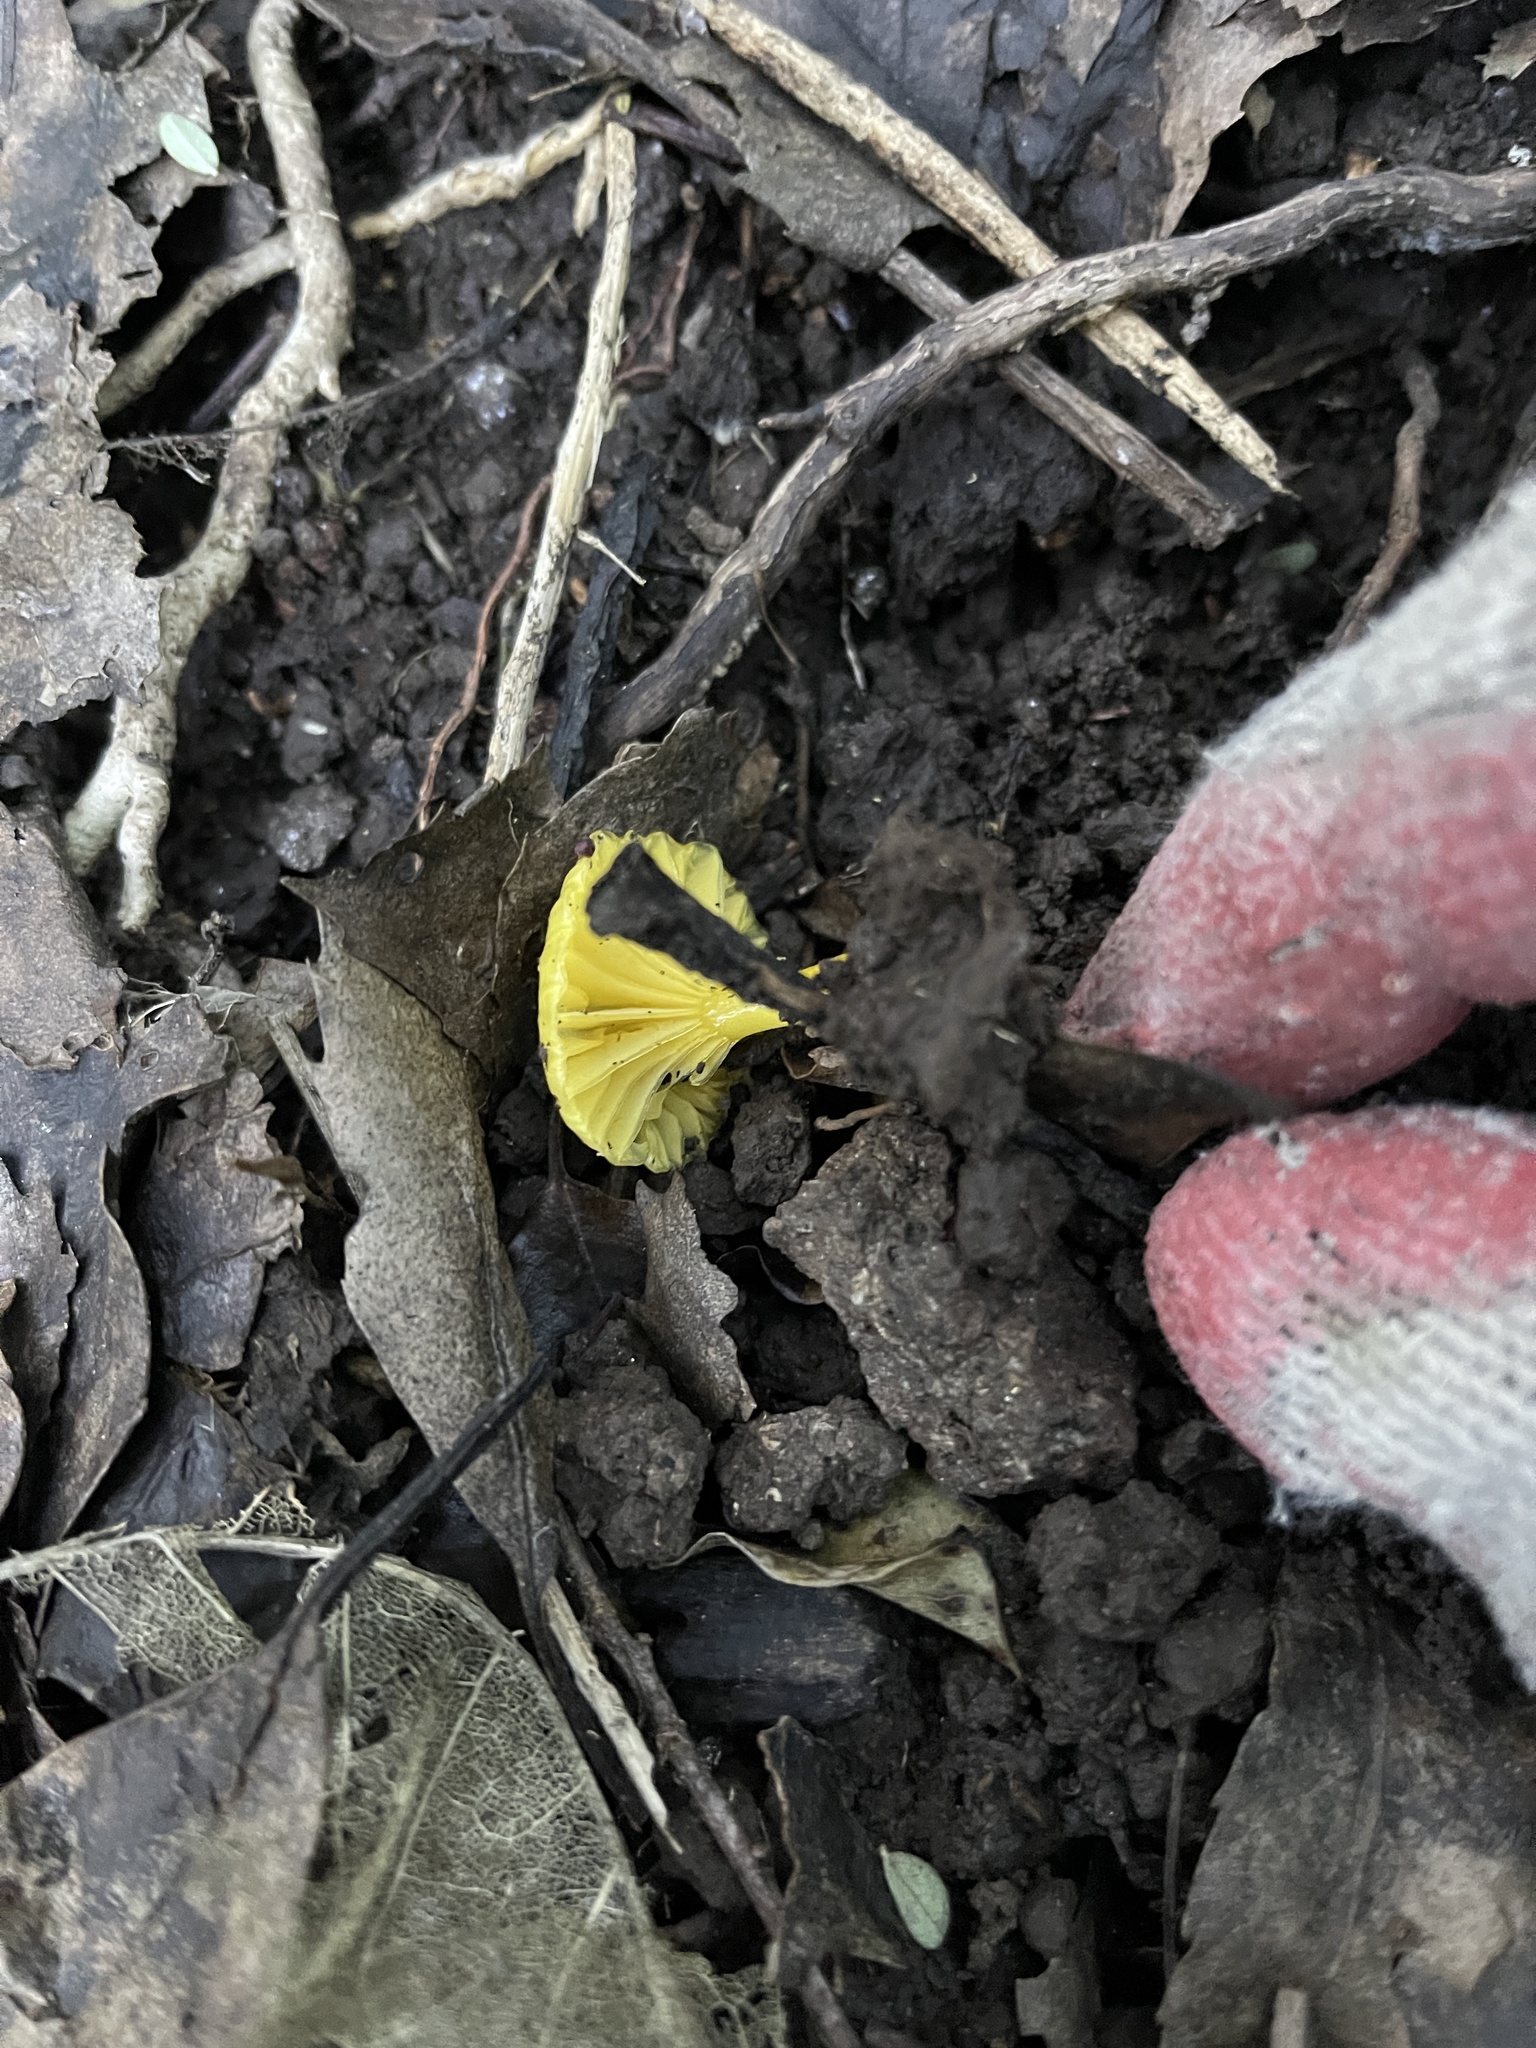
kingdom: Fungi
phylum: Basidiomycota
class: Agaricomycetes
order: Agaricales
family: Hygrophoraceae
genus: Gloioxanthomyces
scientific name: Gloioxanthomyces
